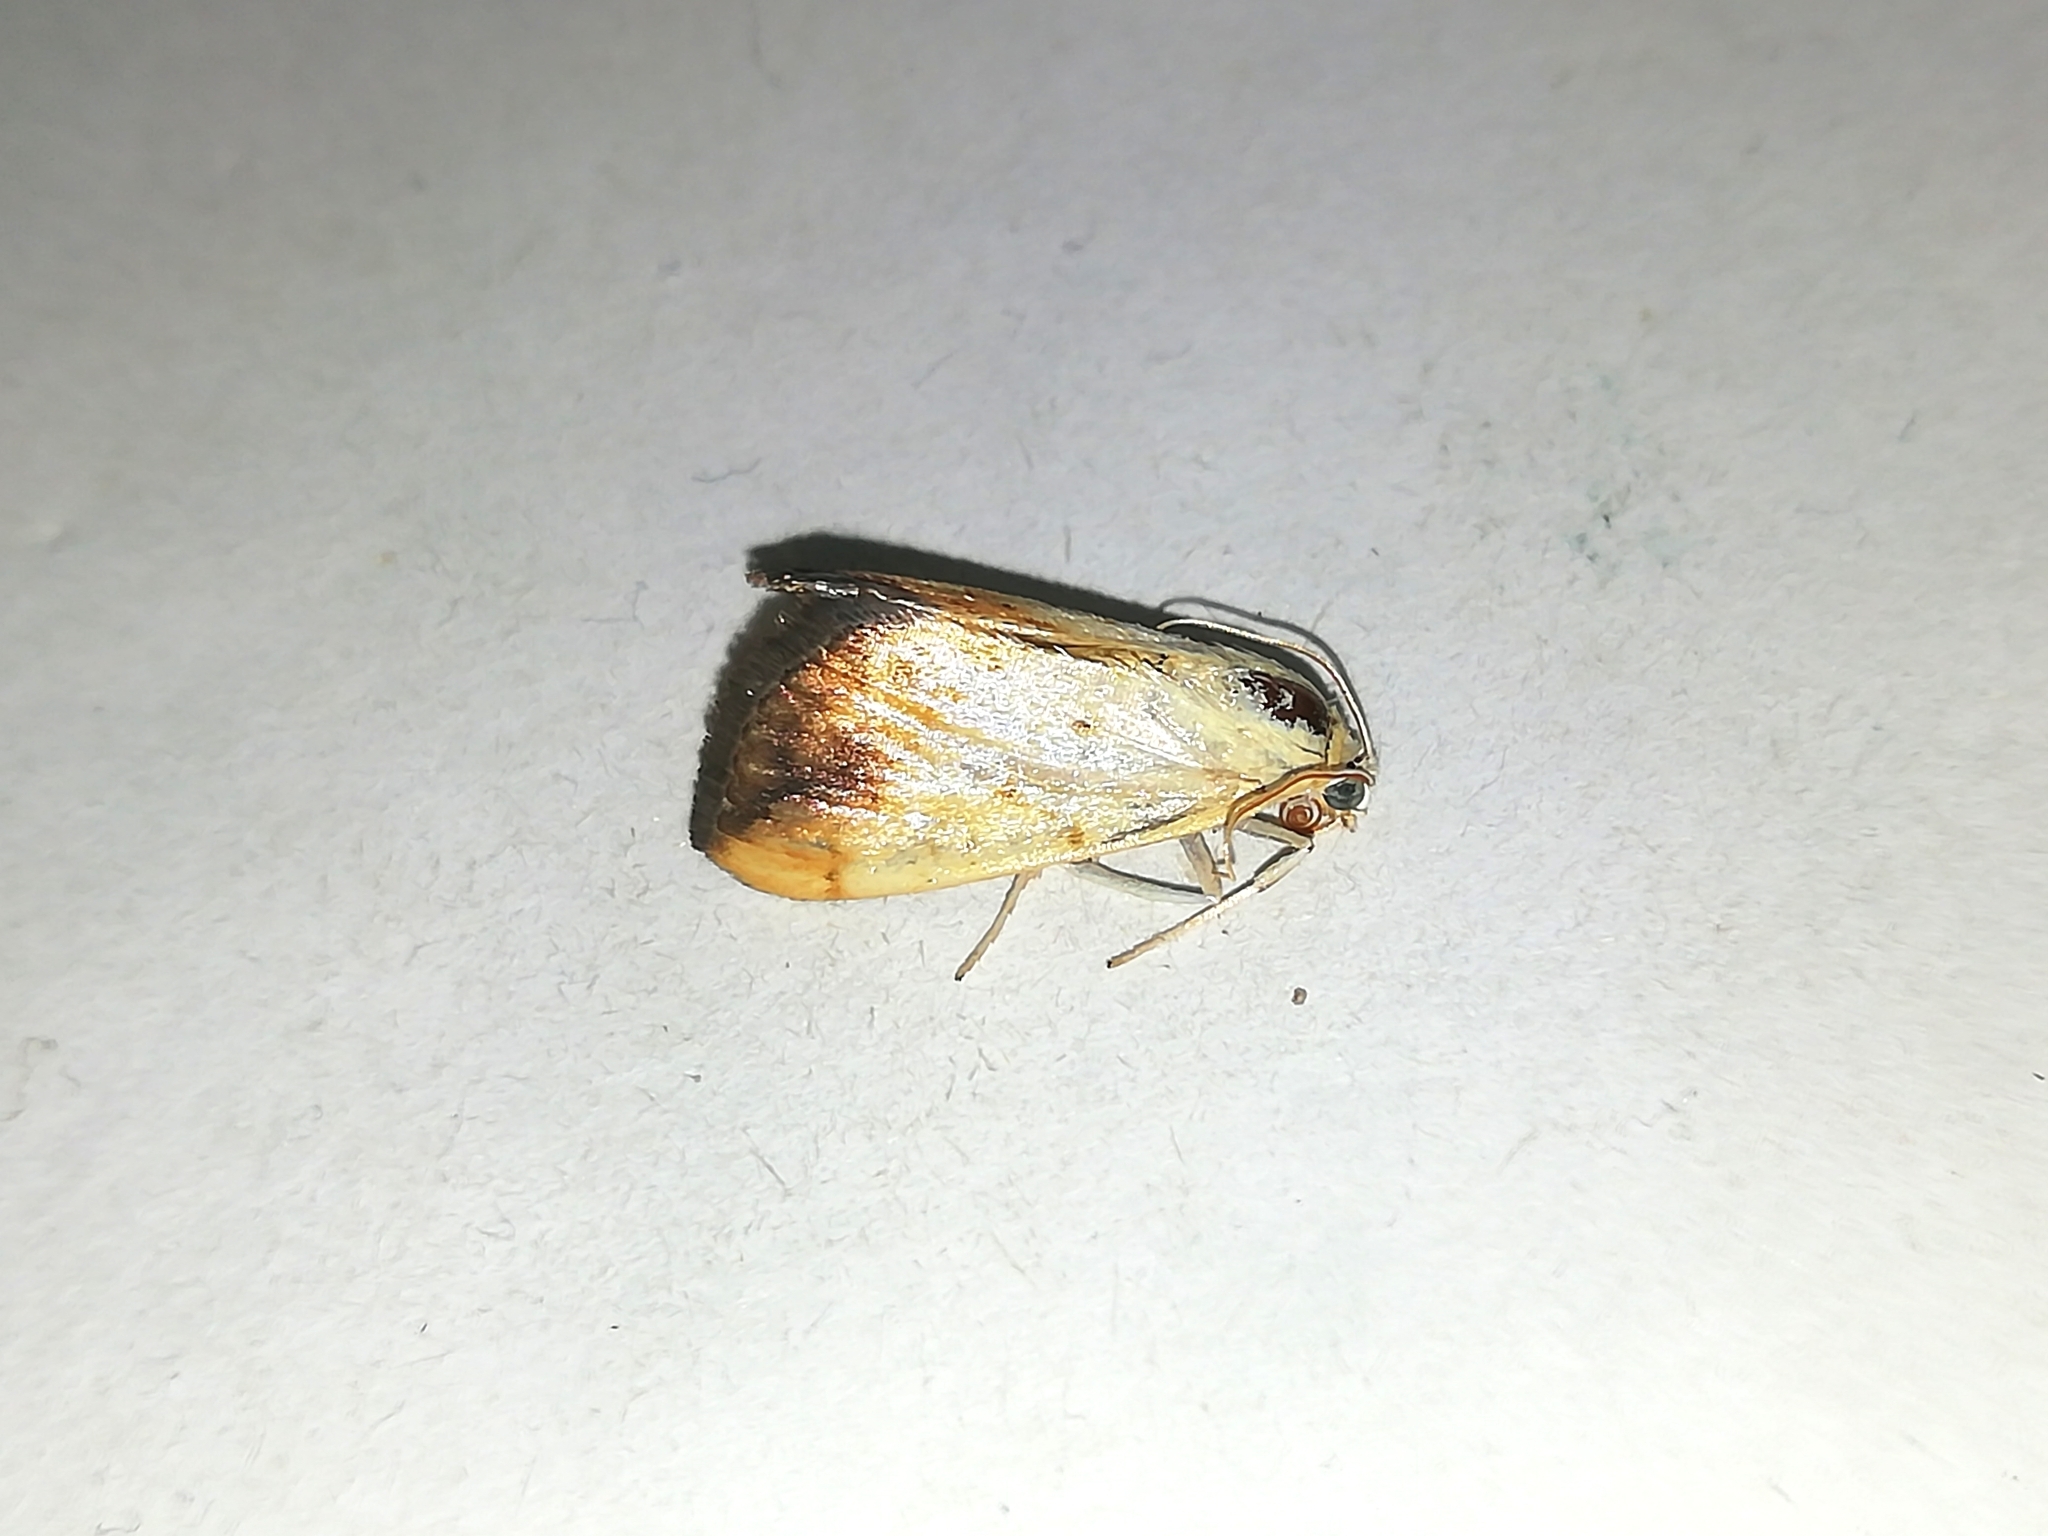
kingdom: Animalia
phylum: Arthropoda
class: Insecta
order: Lepidoptera
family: Crambidae
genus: Evergestis
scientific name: Evergestis extimalis
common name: Marbled yellow pearl
